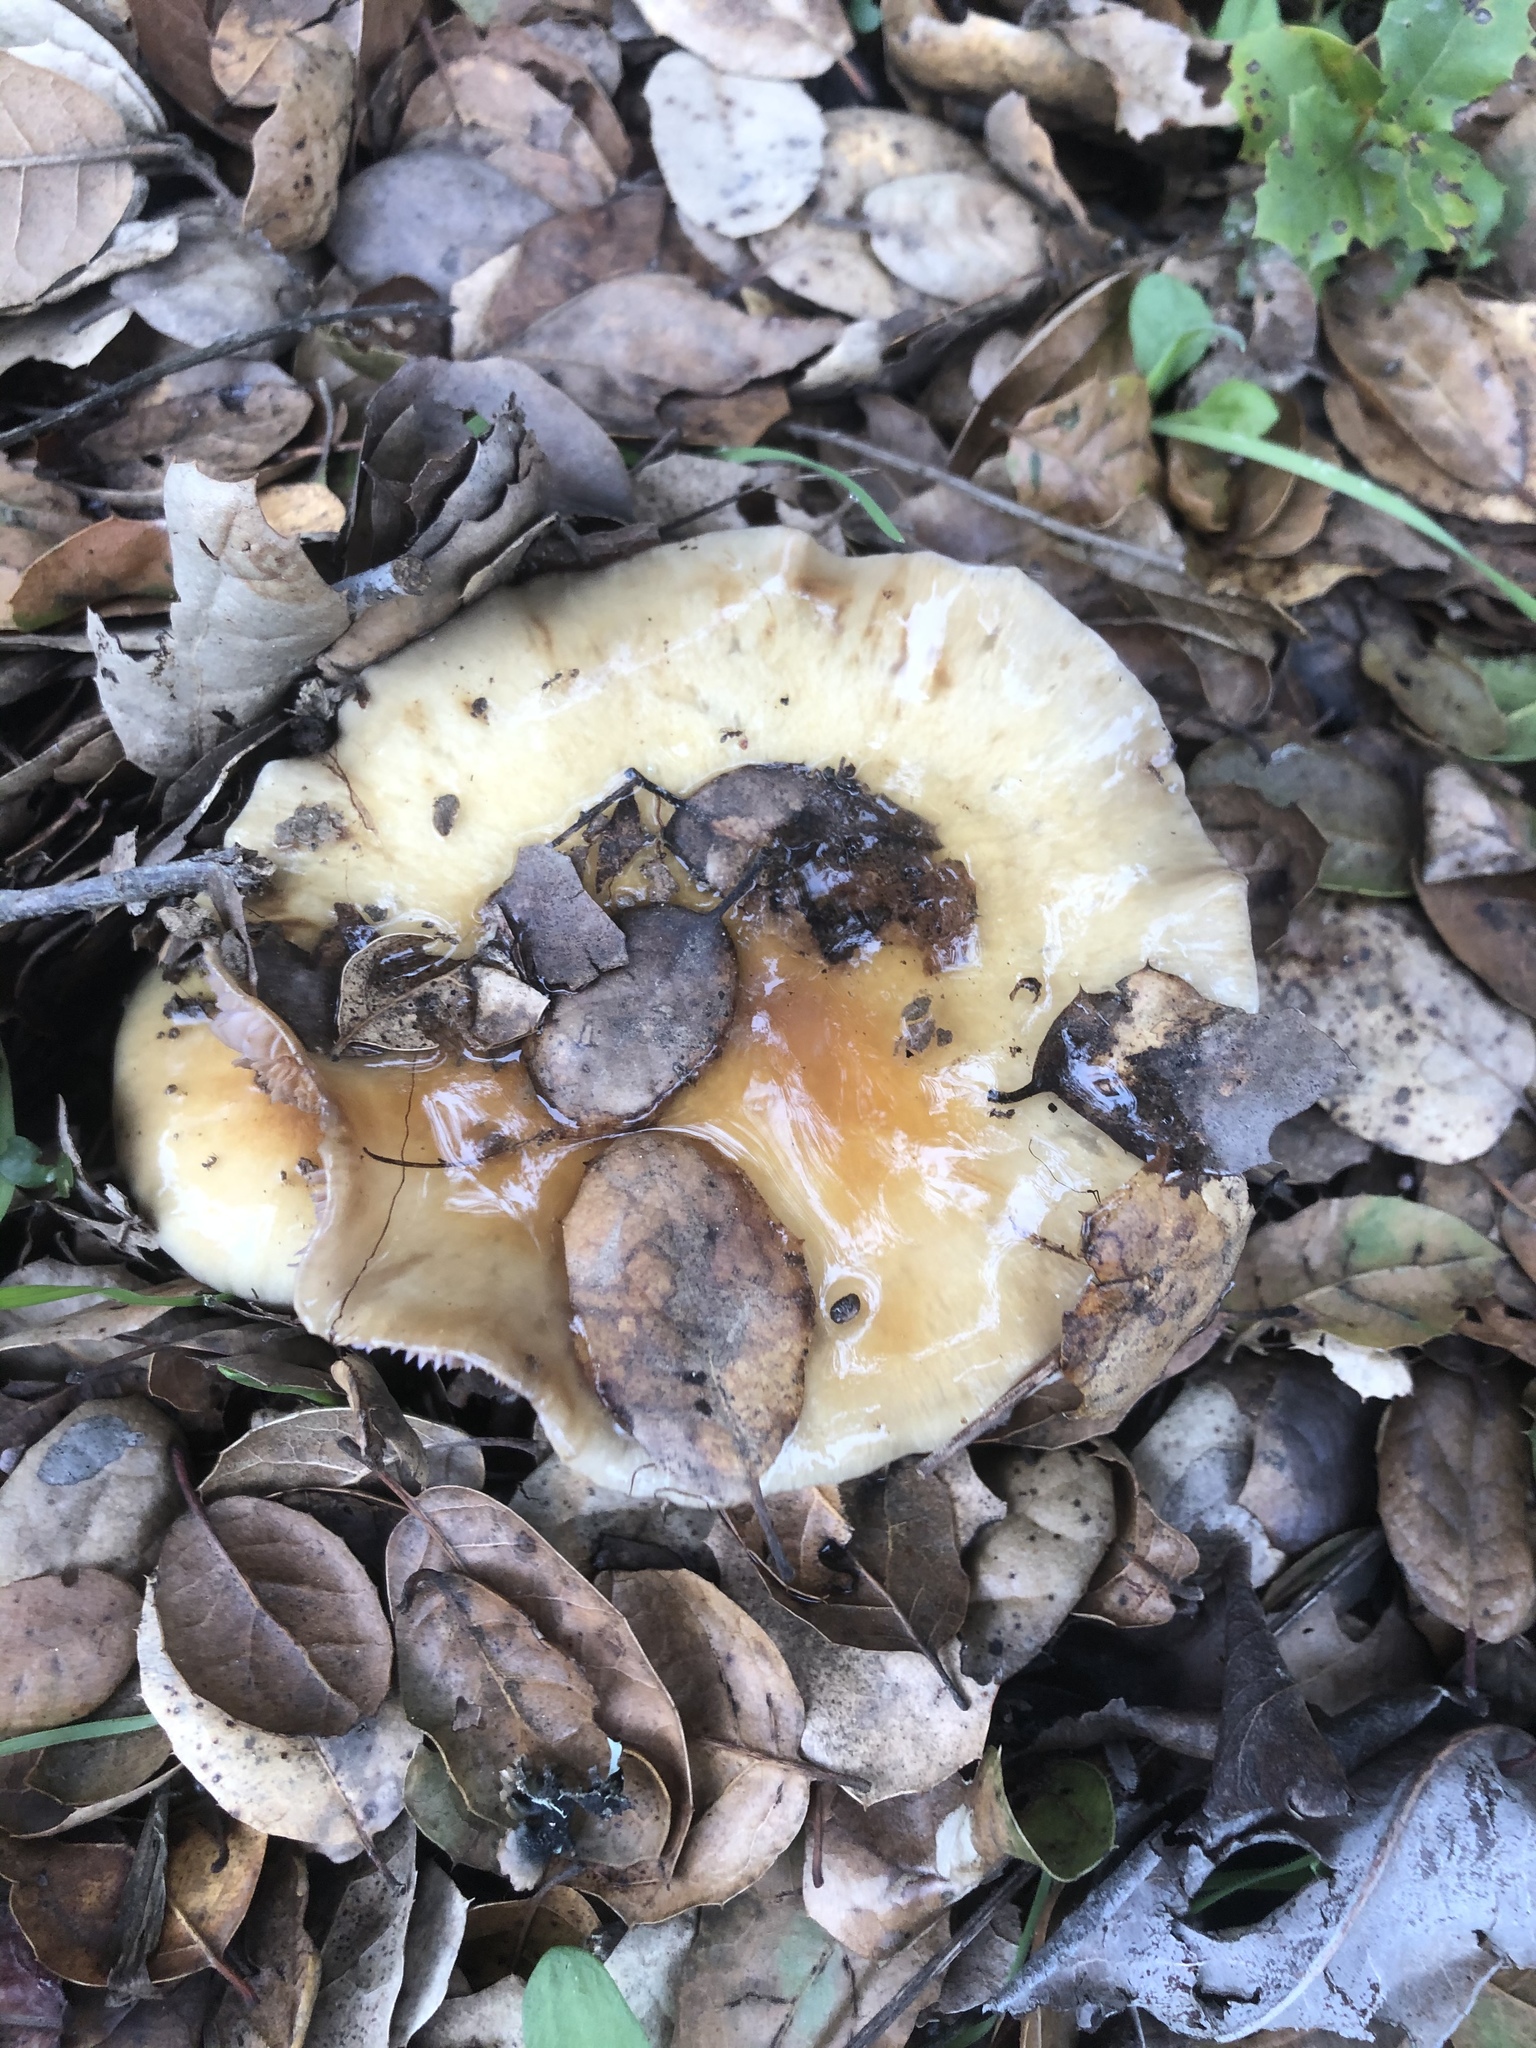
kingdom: Fungi
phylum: Basidiomycota
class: Agaricomycetes
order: Agaricales
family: Cortinariaceae
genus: Cortinarius
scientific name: Cortinarius glutinosoarmillatus
